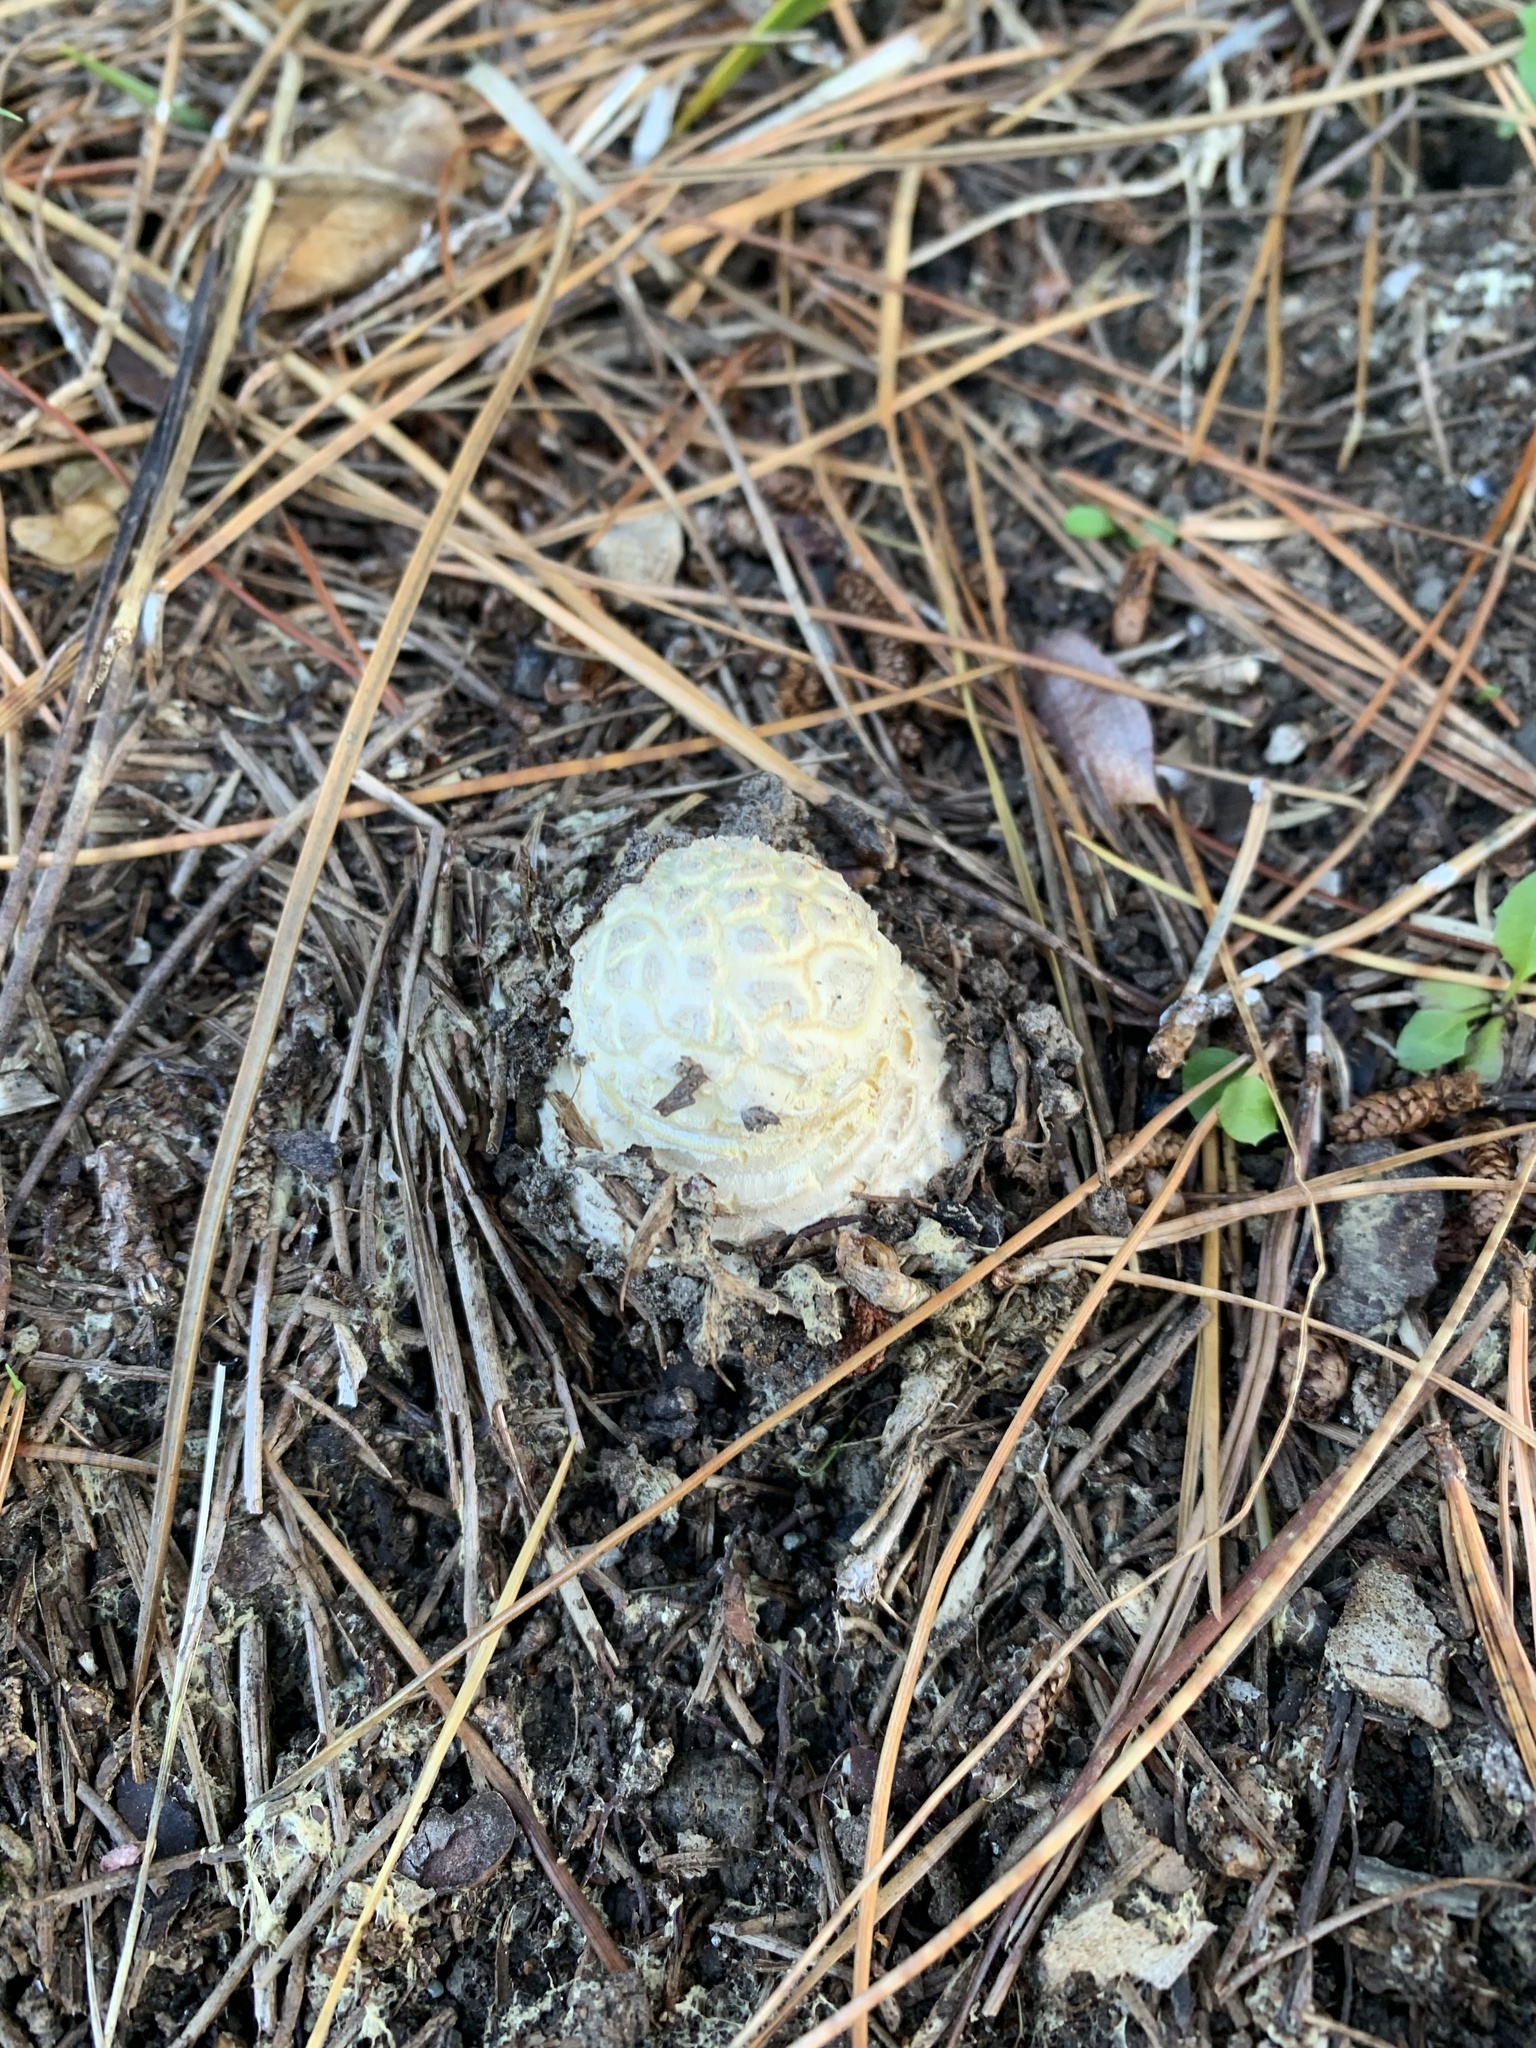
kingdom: Fungi
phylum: Basidiomycota
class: Agaricomycetes
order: Agaricales
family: Amanitaceae
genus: Amanita
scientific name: Amanita muscaria
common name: Fly agaric
